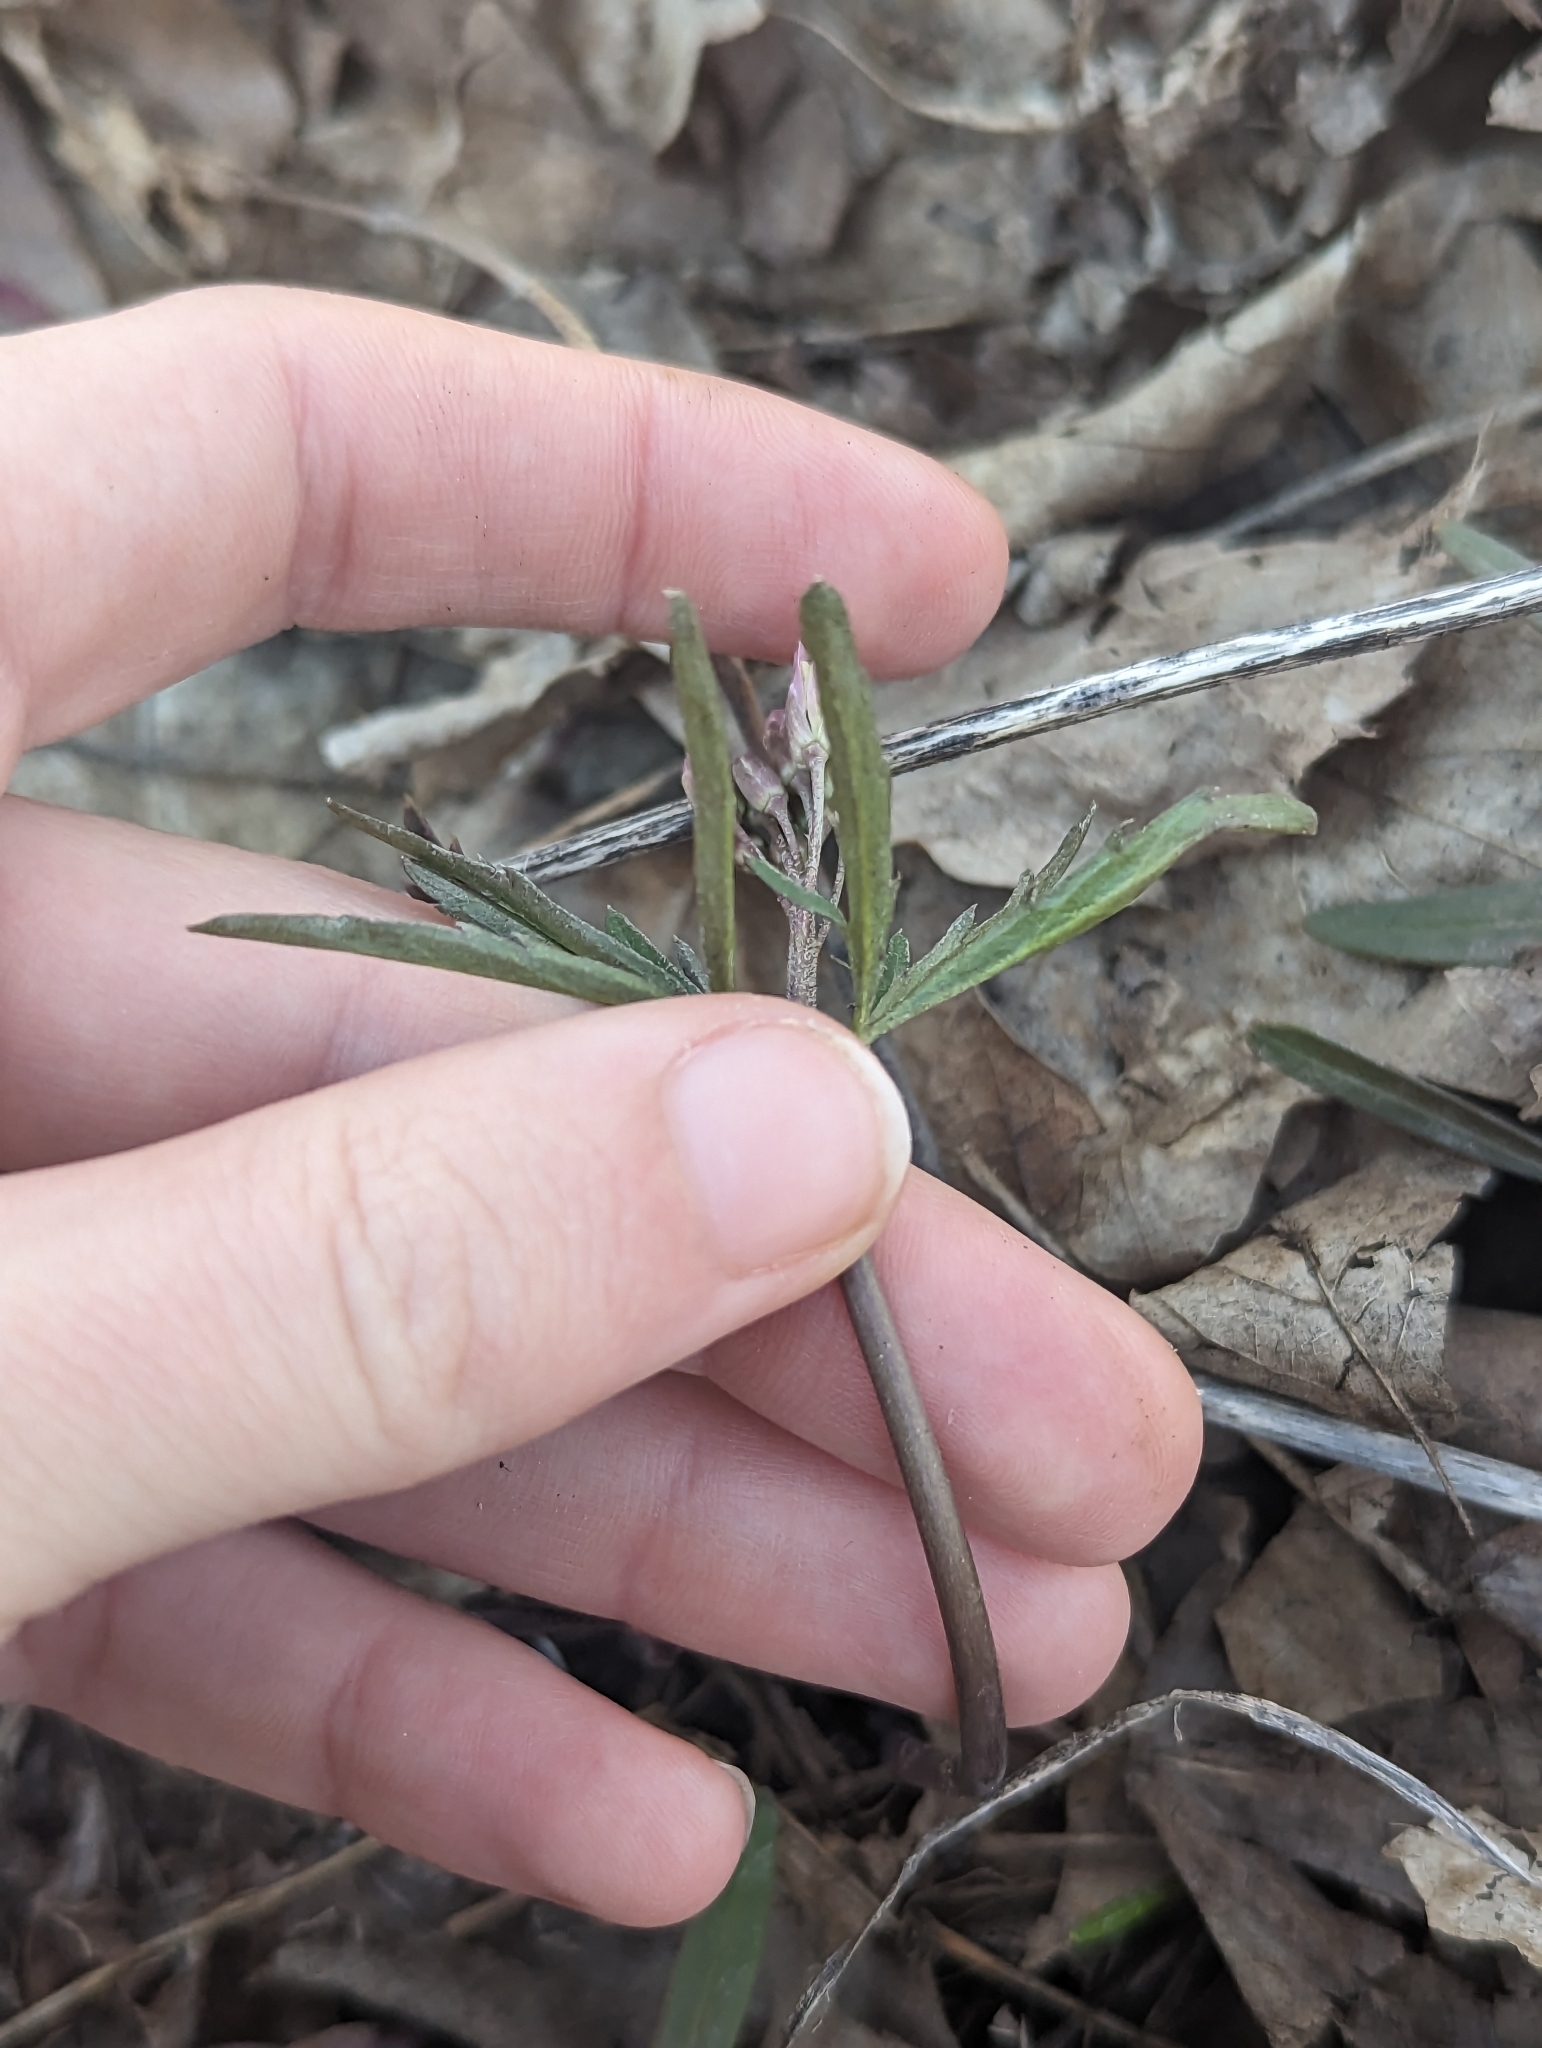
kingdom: Plantae
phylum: Tracheophyta
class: Magnoliopsida
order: Brassicales
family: Brassicaceae
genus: Cardamine
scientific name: Cardamine concatenata
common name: Cut-leaf toothcup
